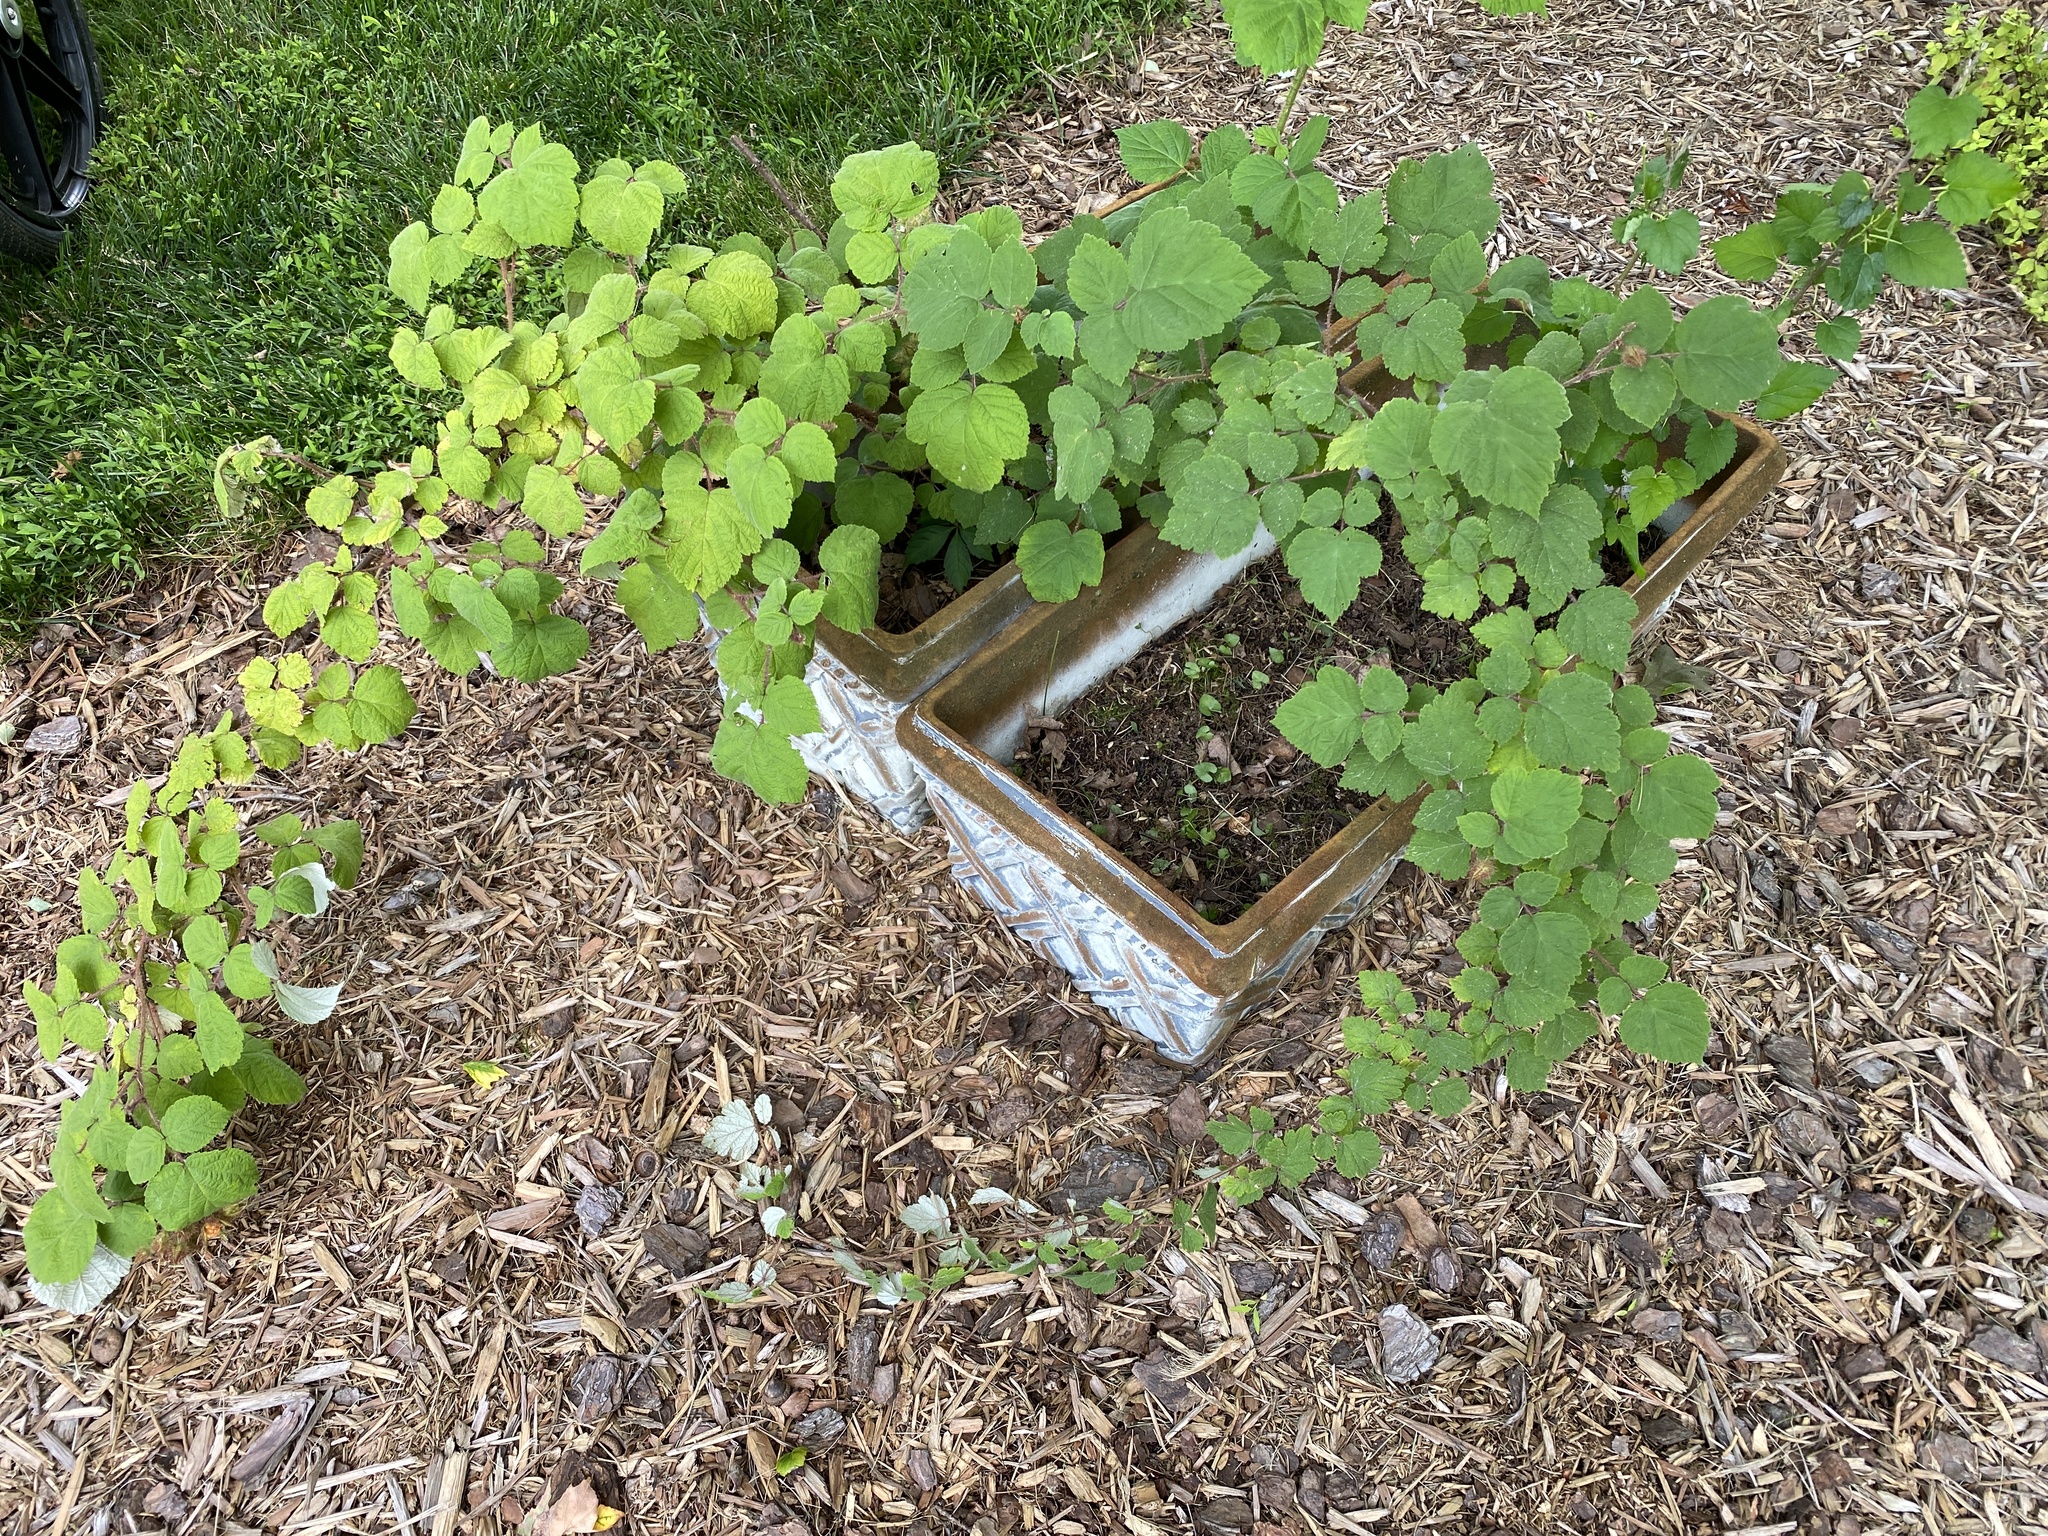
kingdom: Plantae
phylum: Tracheophyta
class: Magnoliopsida
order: Rosales
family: Rosaceae
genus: Rubus
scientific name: Rubus phoenicolasius
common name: Japanese wineberry
